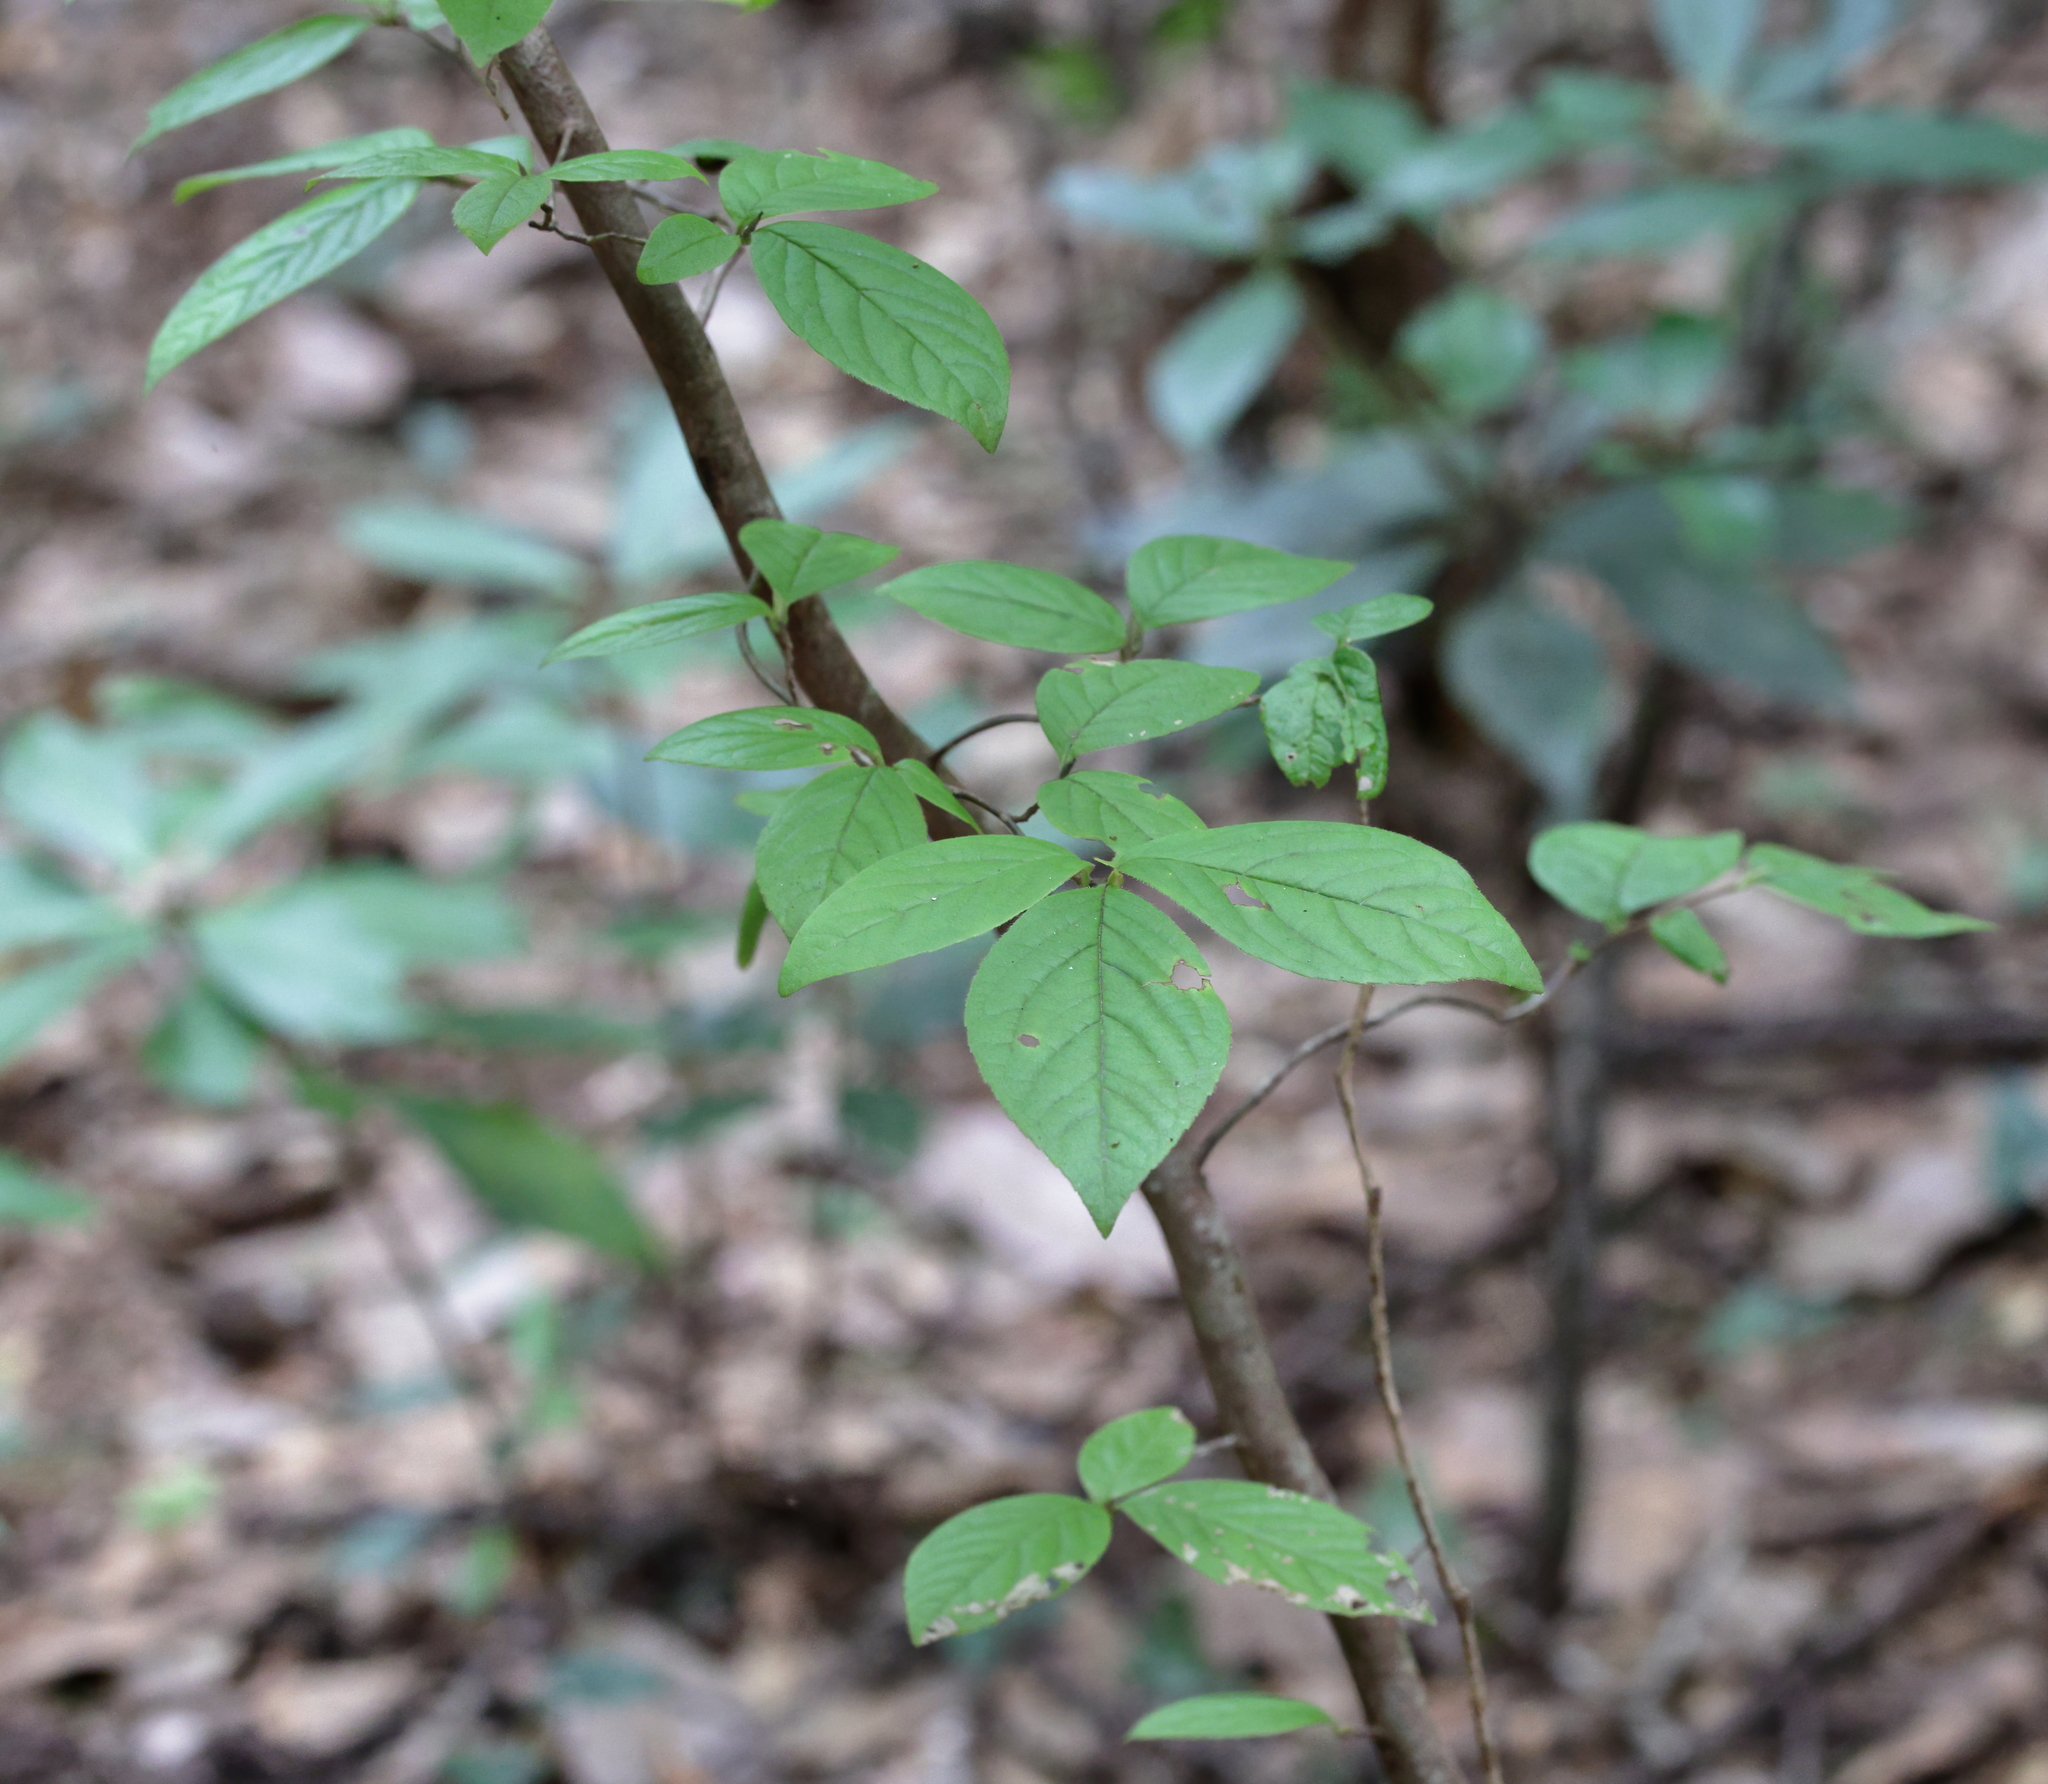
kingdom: Plantae
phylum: Tracheophyta
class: Magnoliopsida
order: Ericales
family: Theaceae
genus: Stewartia
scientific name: Stewartia malacodendron
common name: Virginia stewartia
